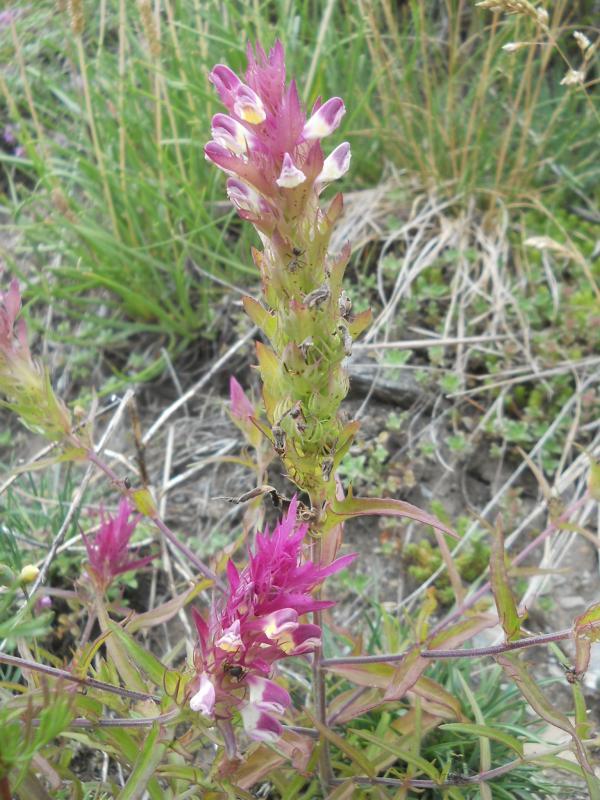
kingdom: Plantae
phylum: Tracheophyta
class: Magnoliopsida
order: Lamiales
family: Orobanchaceae
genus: Melampyrum
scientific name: Melampyrum arvense
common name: Field cow-wheat
